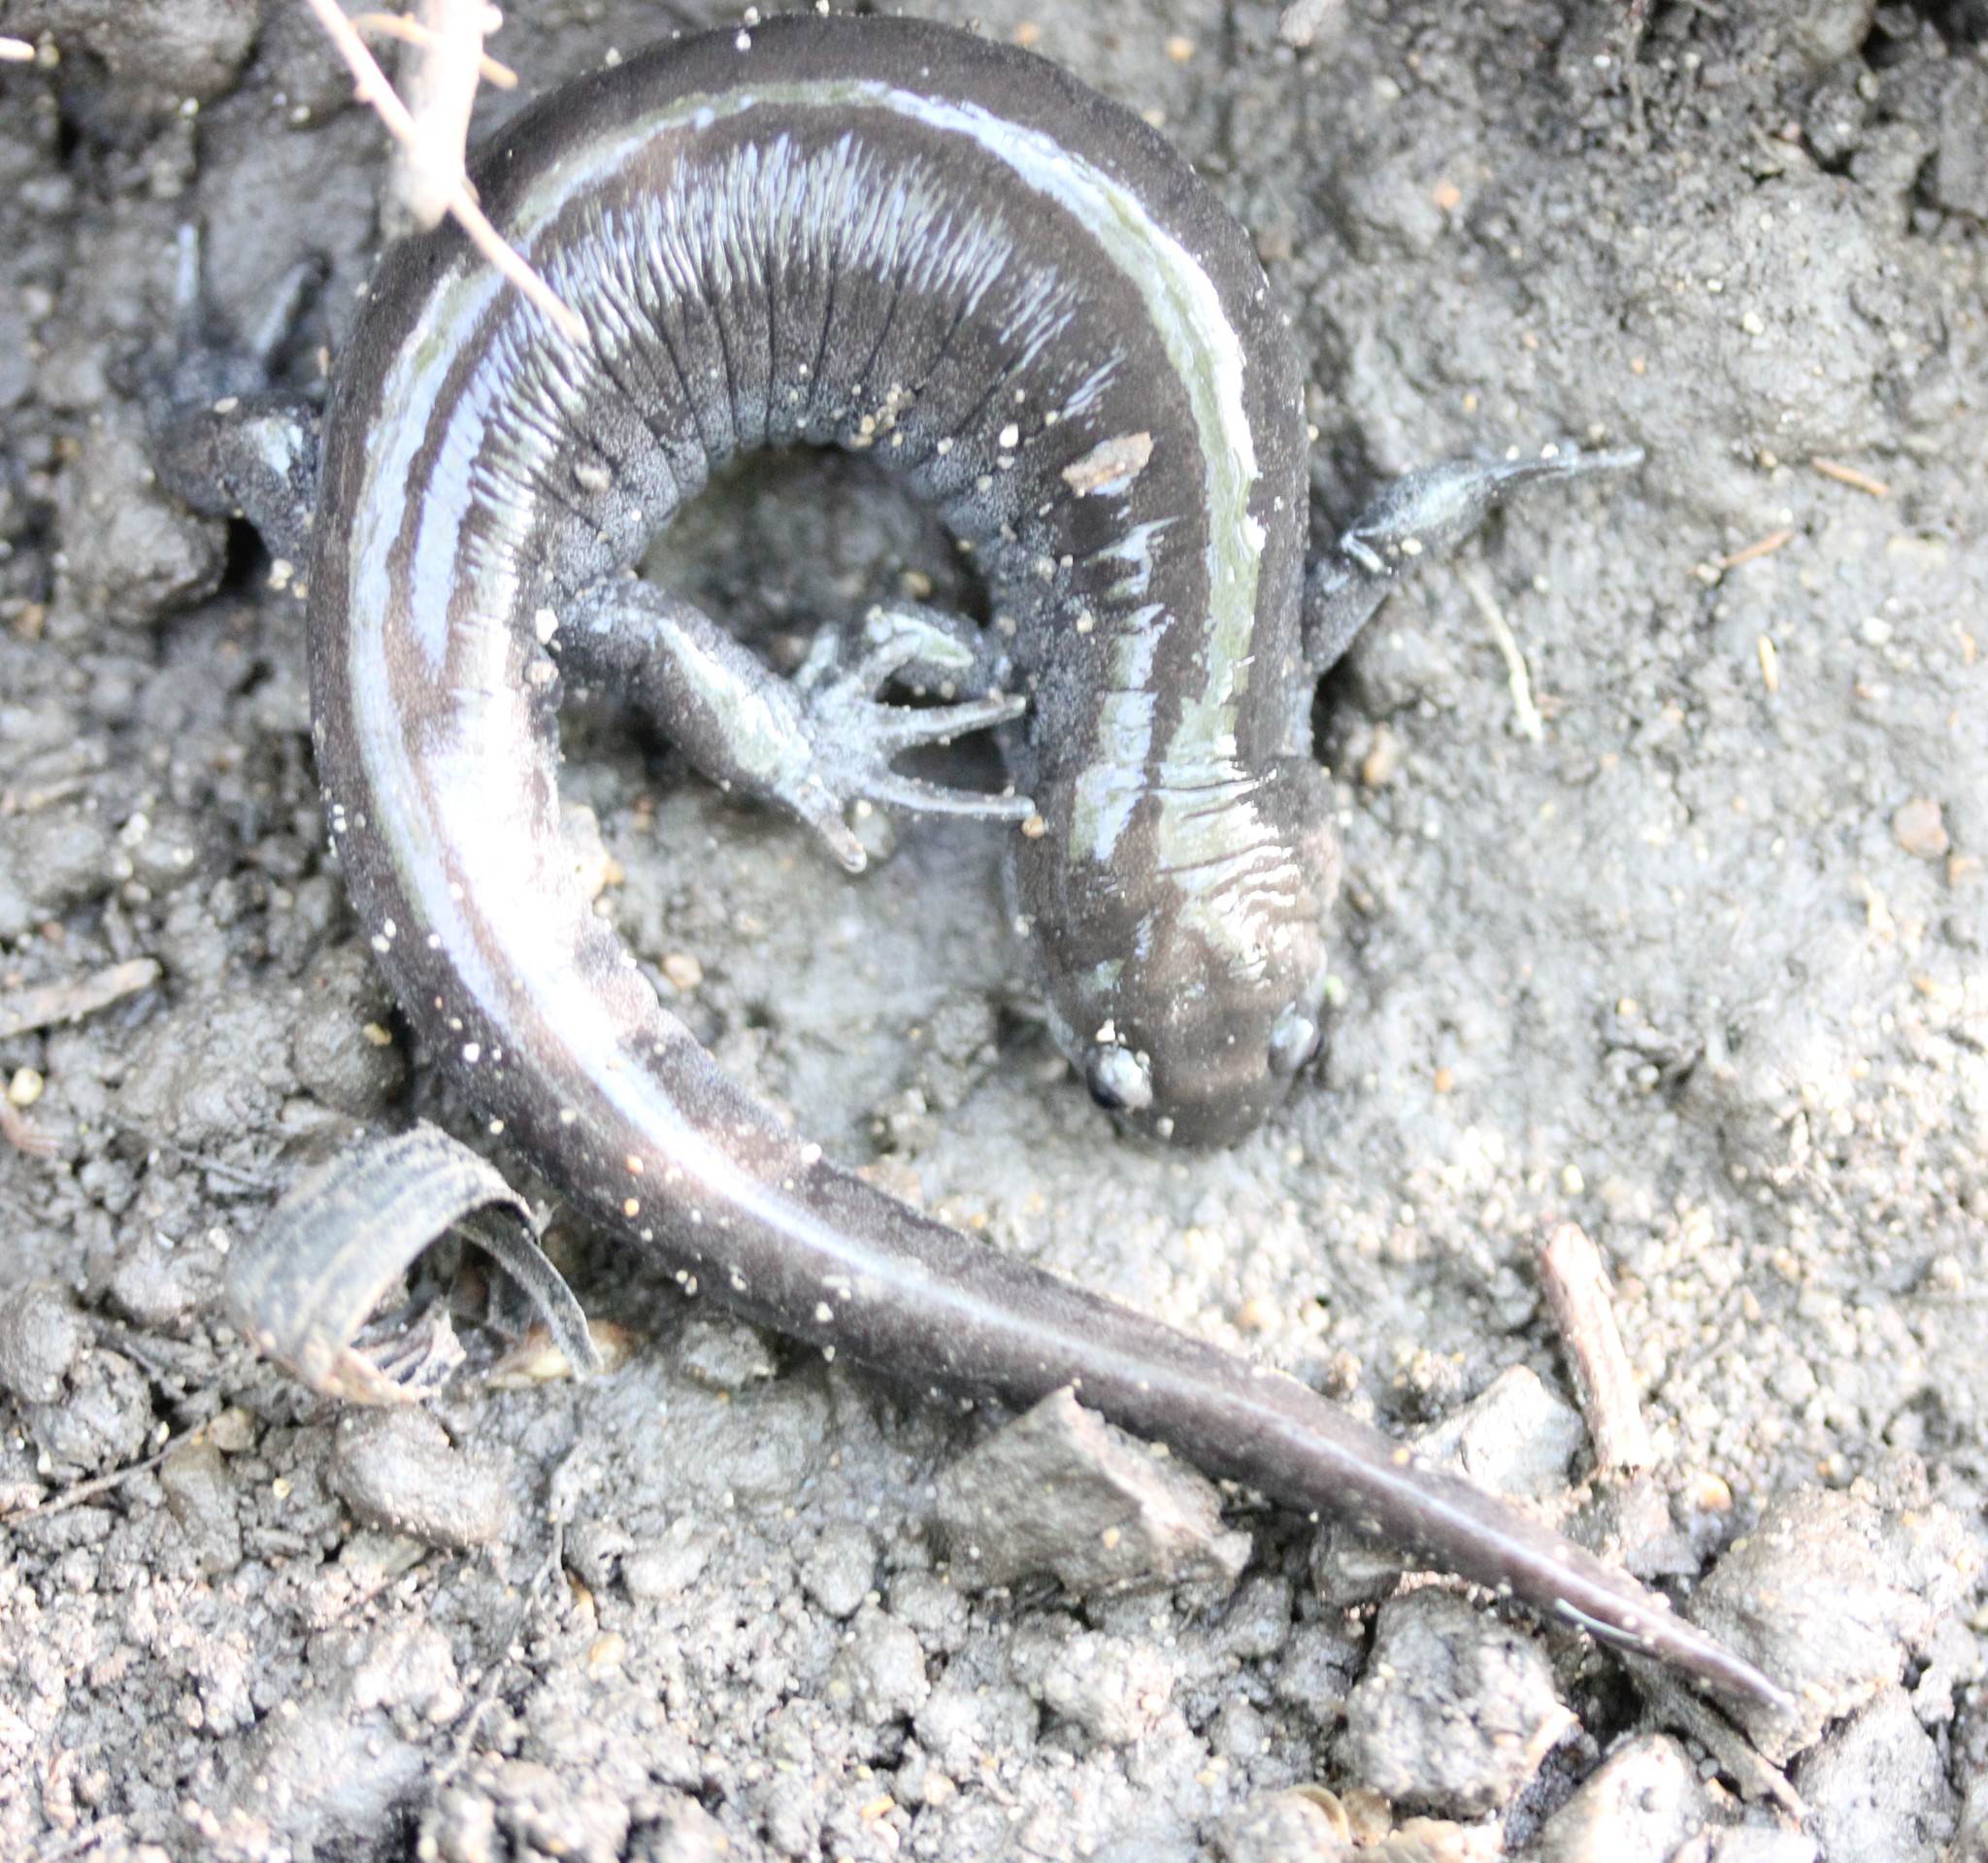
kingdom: Animalia
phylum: Chordata
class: Amphibia
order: Caudata
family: Ambystomatidae
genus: Ambystoma
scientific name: Ambystoma texanum
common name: Small-mouth salamander
